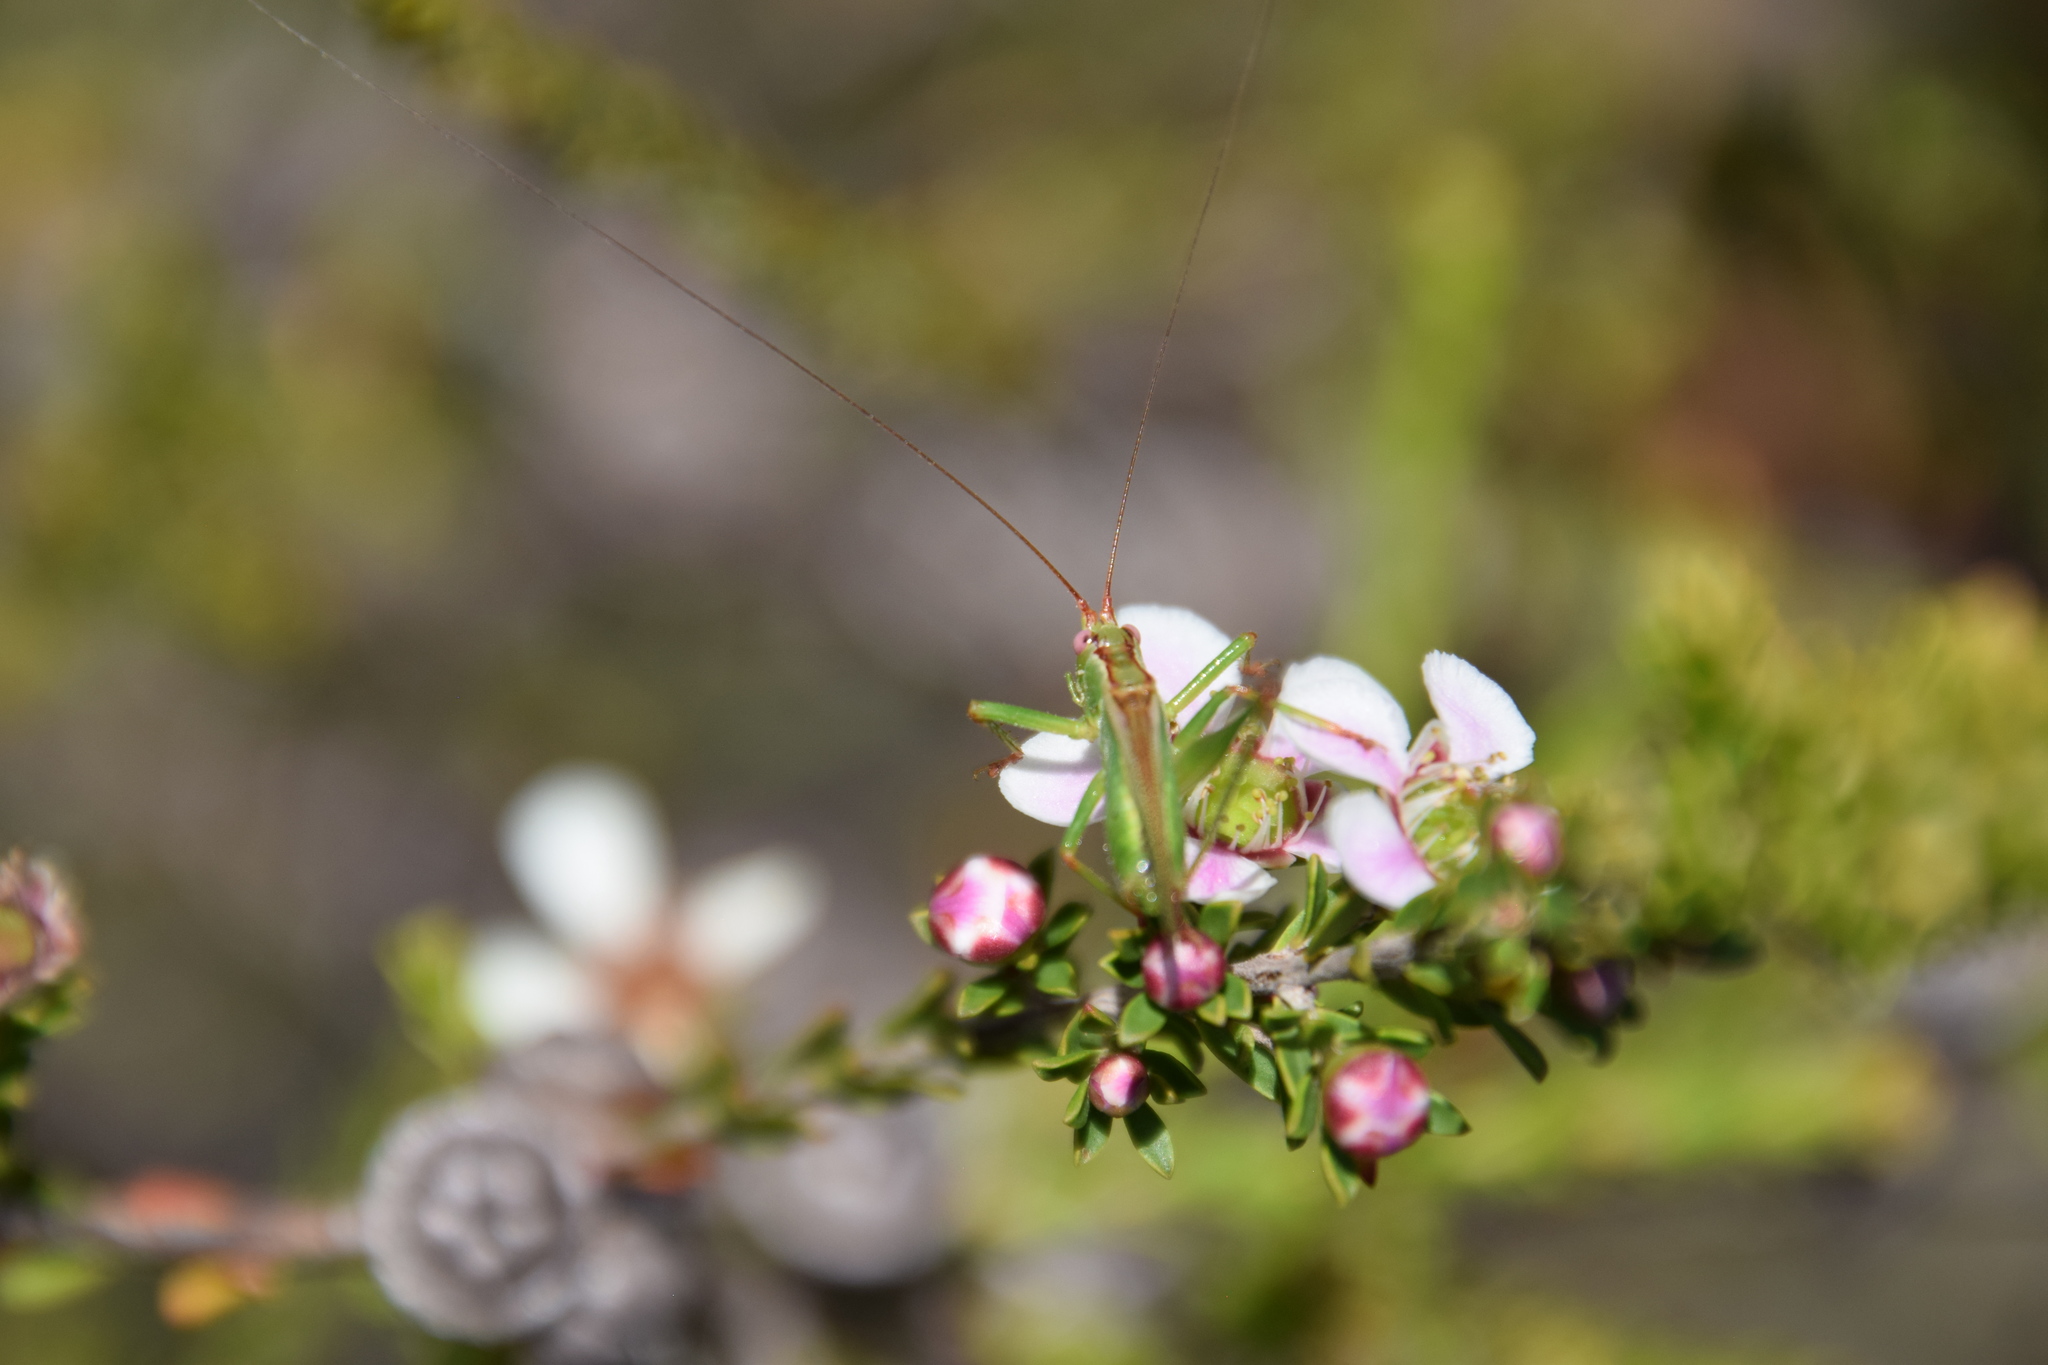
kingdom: Animalia
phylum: Arthropoda
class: Insecta
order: Orthoptera
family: Tettigoniidae
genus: Conocephalomima
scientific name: Conocephalomima barameda
